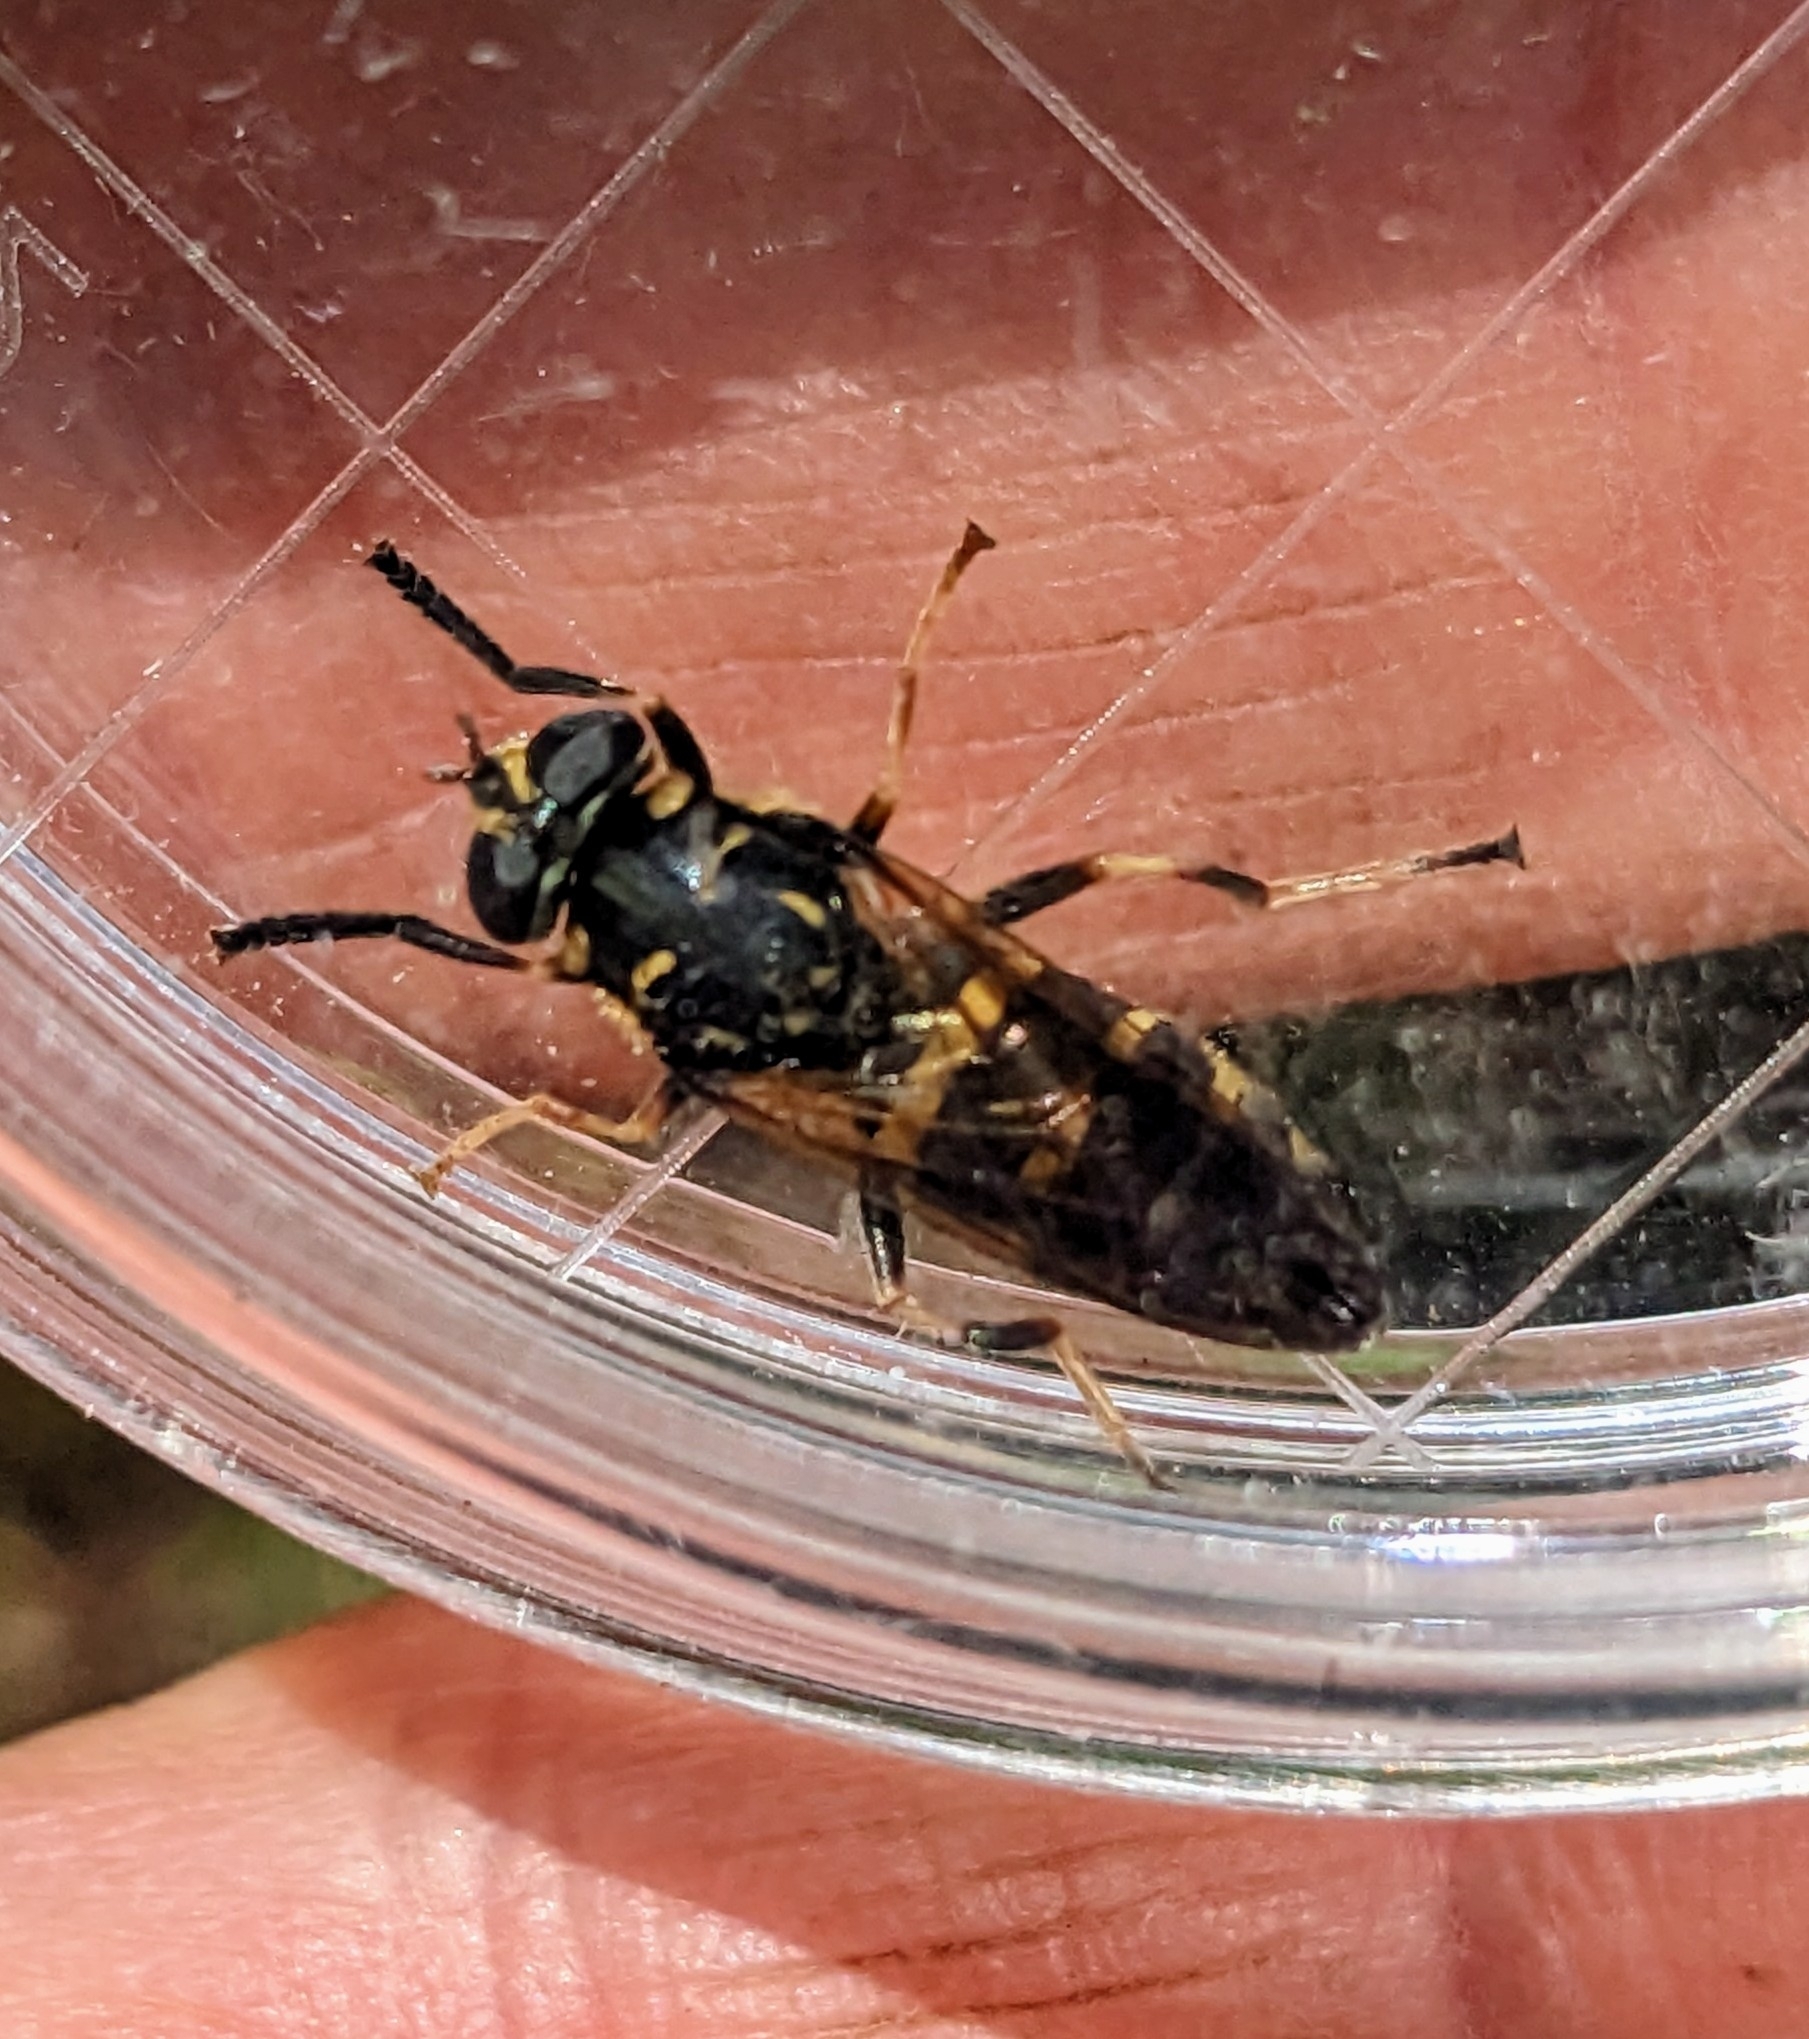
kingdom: Animalia
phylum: Arthropoda
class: Insecta
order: Diptera
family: Syrphidae
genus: Temnostoma
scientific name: Temnostoma barberi
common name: Bare-bellied falsehorn
